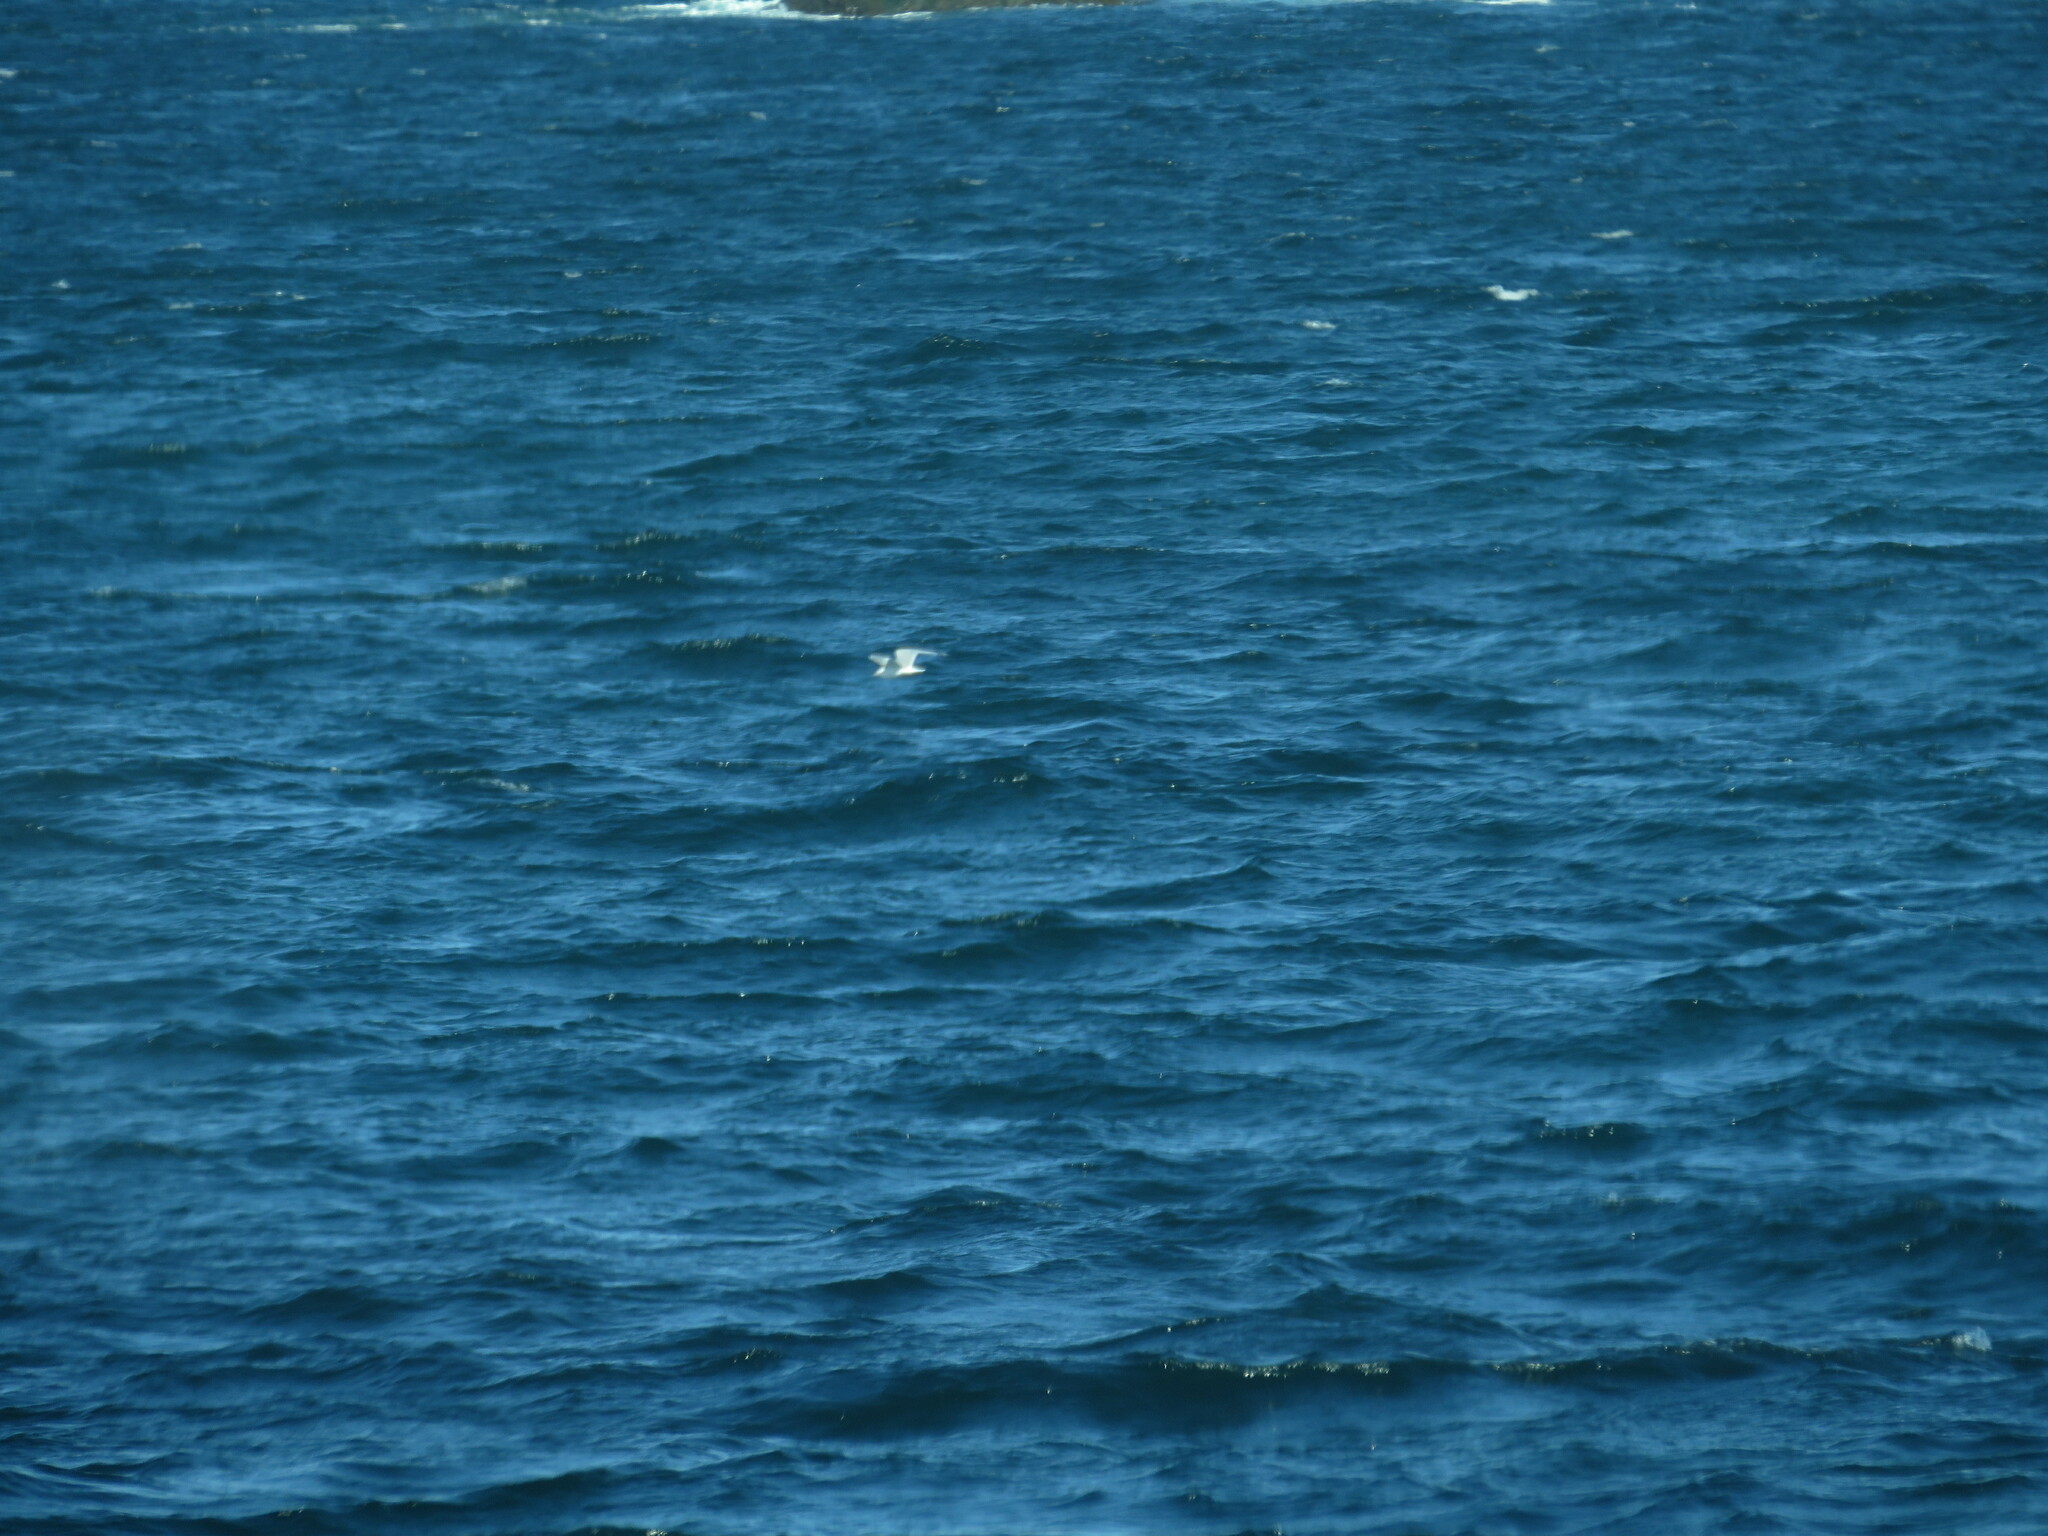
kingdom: Animalia
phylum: Chordata
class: Aves
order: Charadriiformes
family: Laridae
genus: Larus
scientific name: Larus glaucoides
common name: Iceland gull
